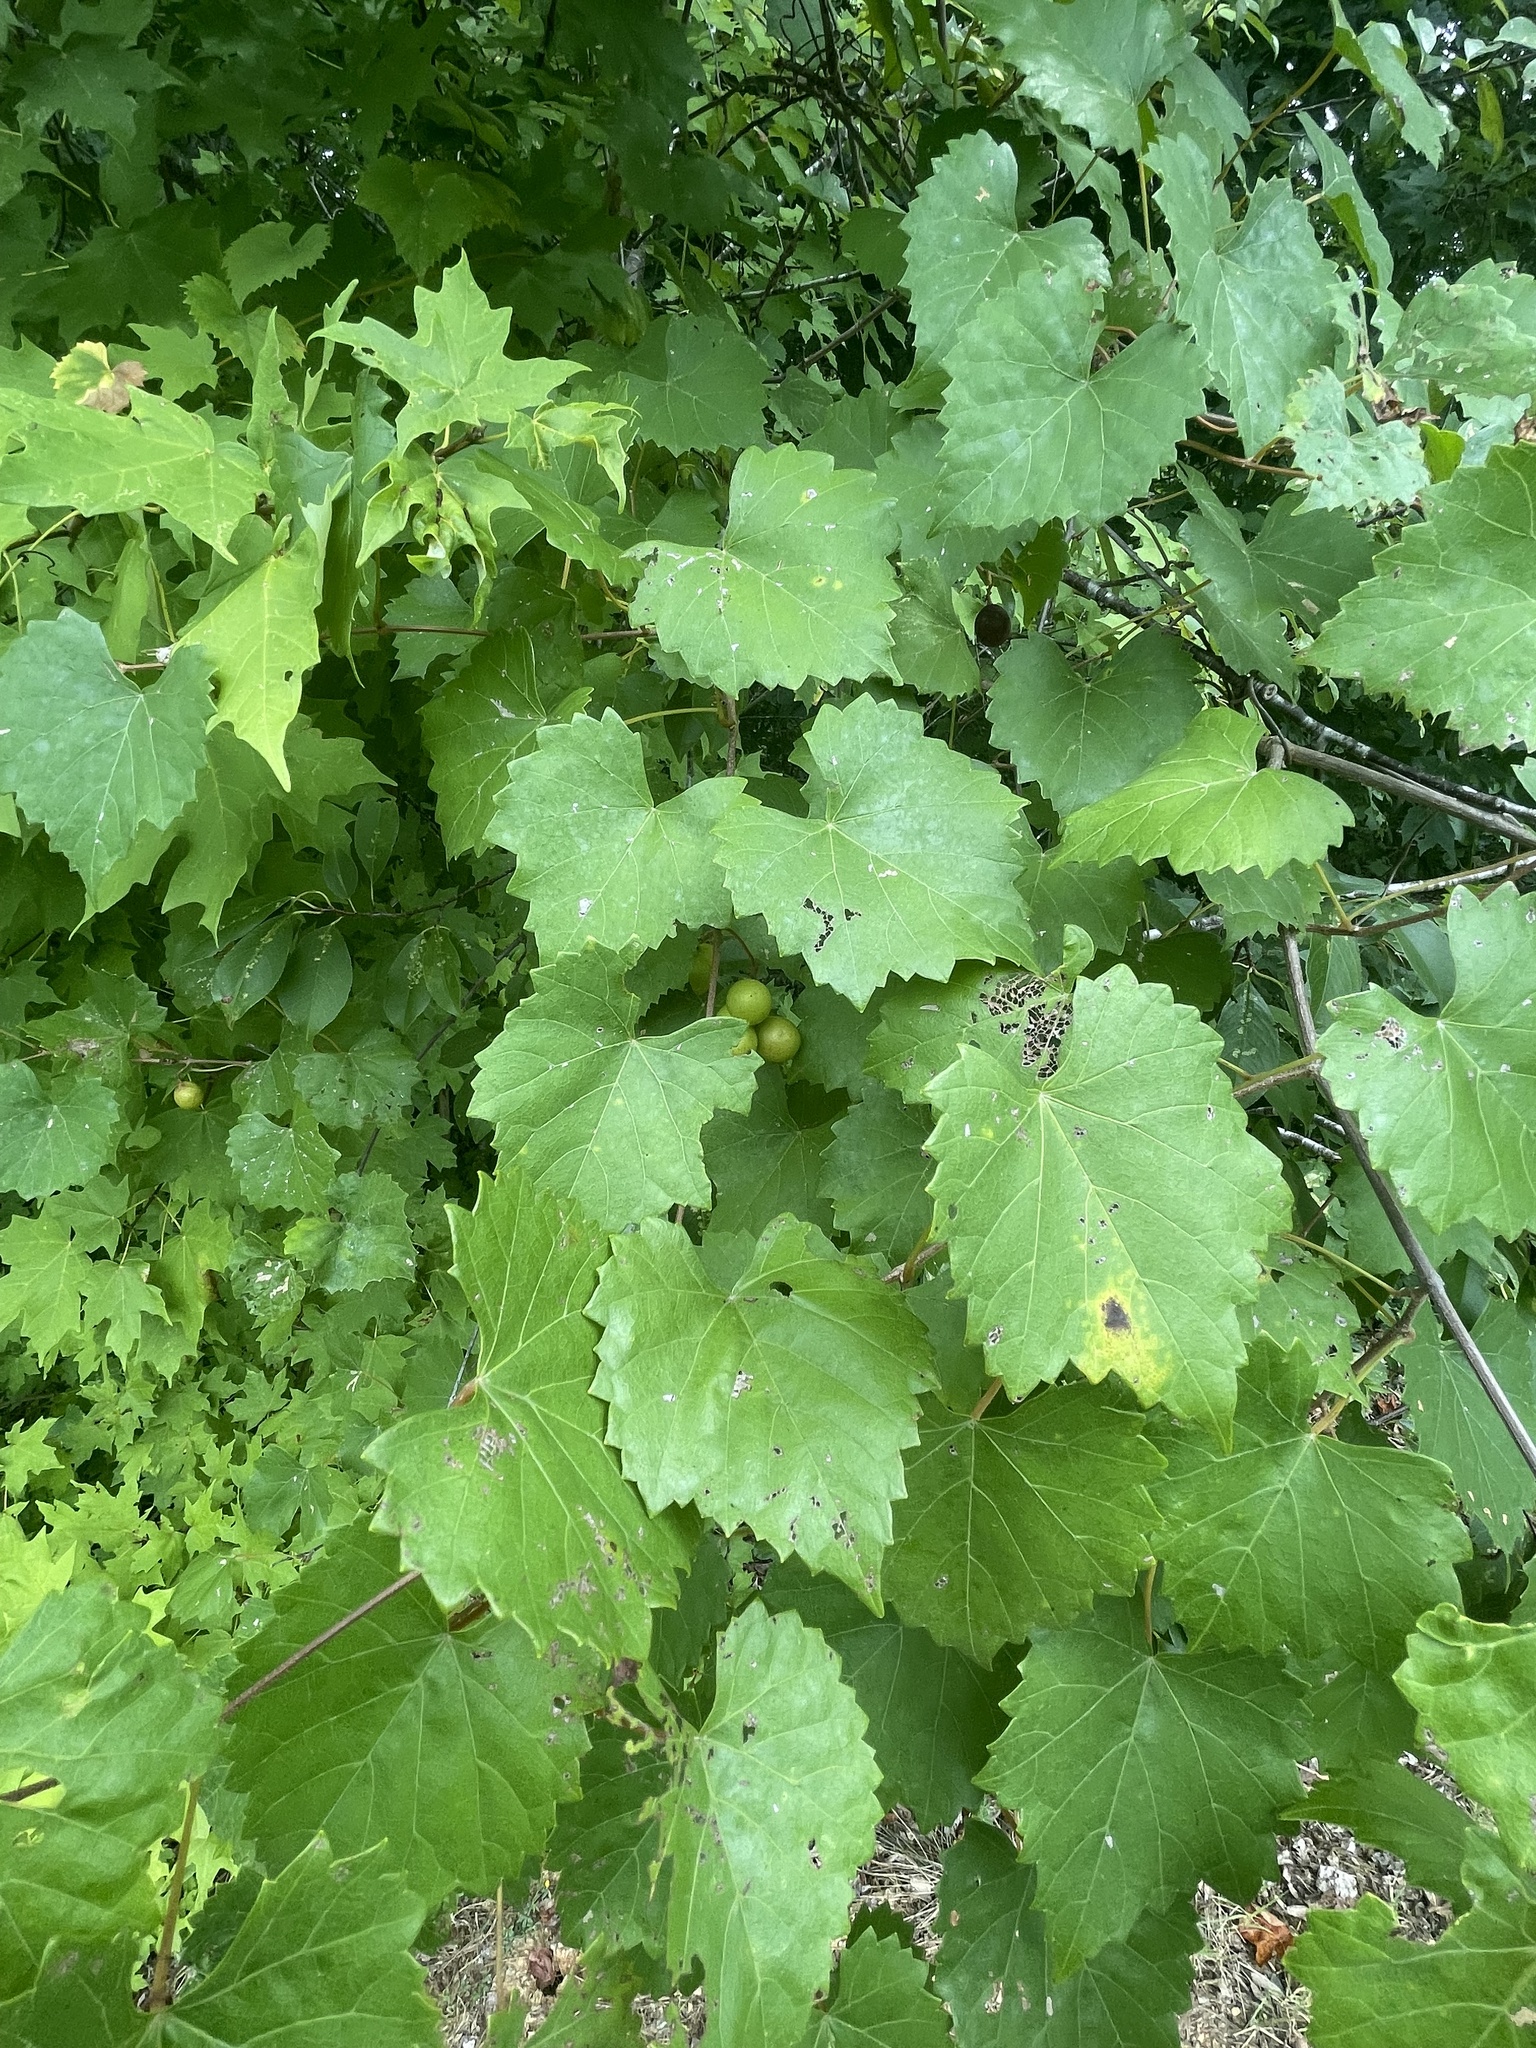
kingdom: Plantae
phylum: Tracheophyta
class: Magnoliopsida
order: Vitales
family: Vitaceae
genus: Vitis
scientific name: Vitis rotundifolia
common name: Muscadine grape
